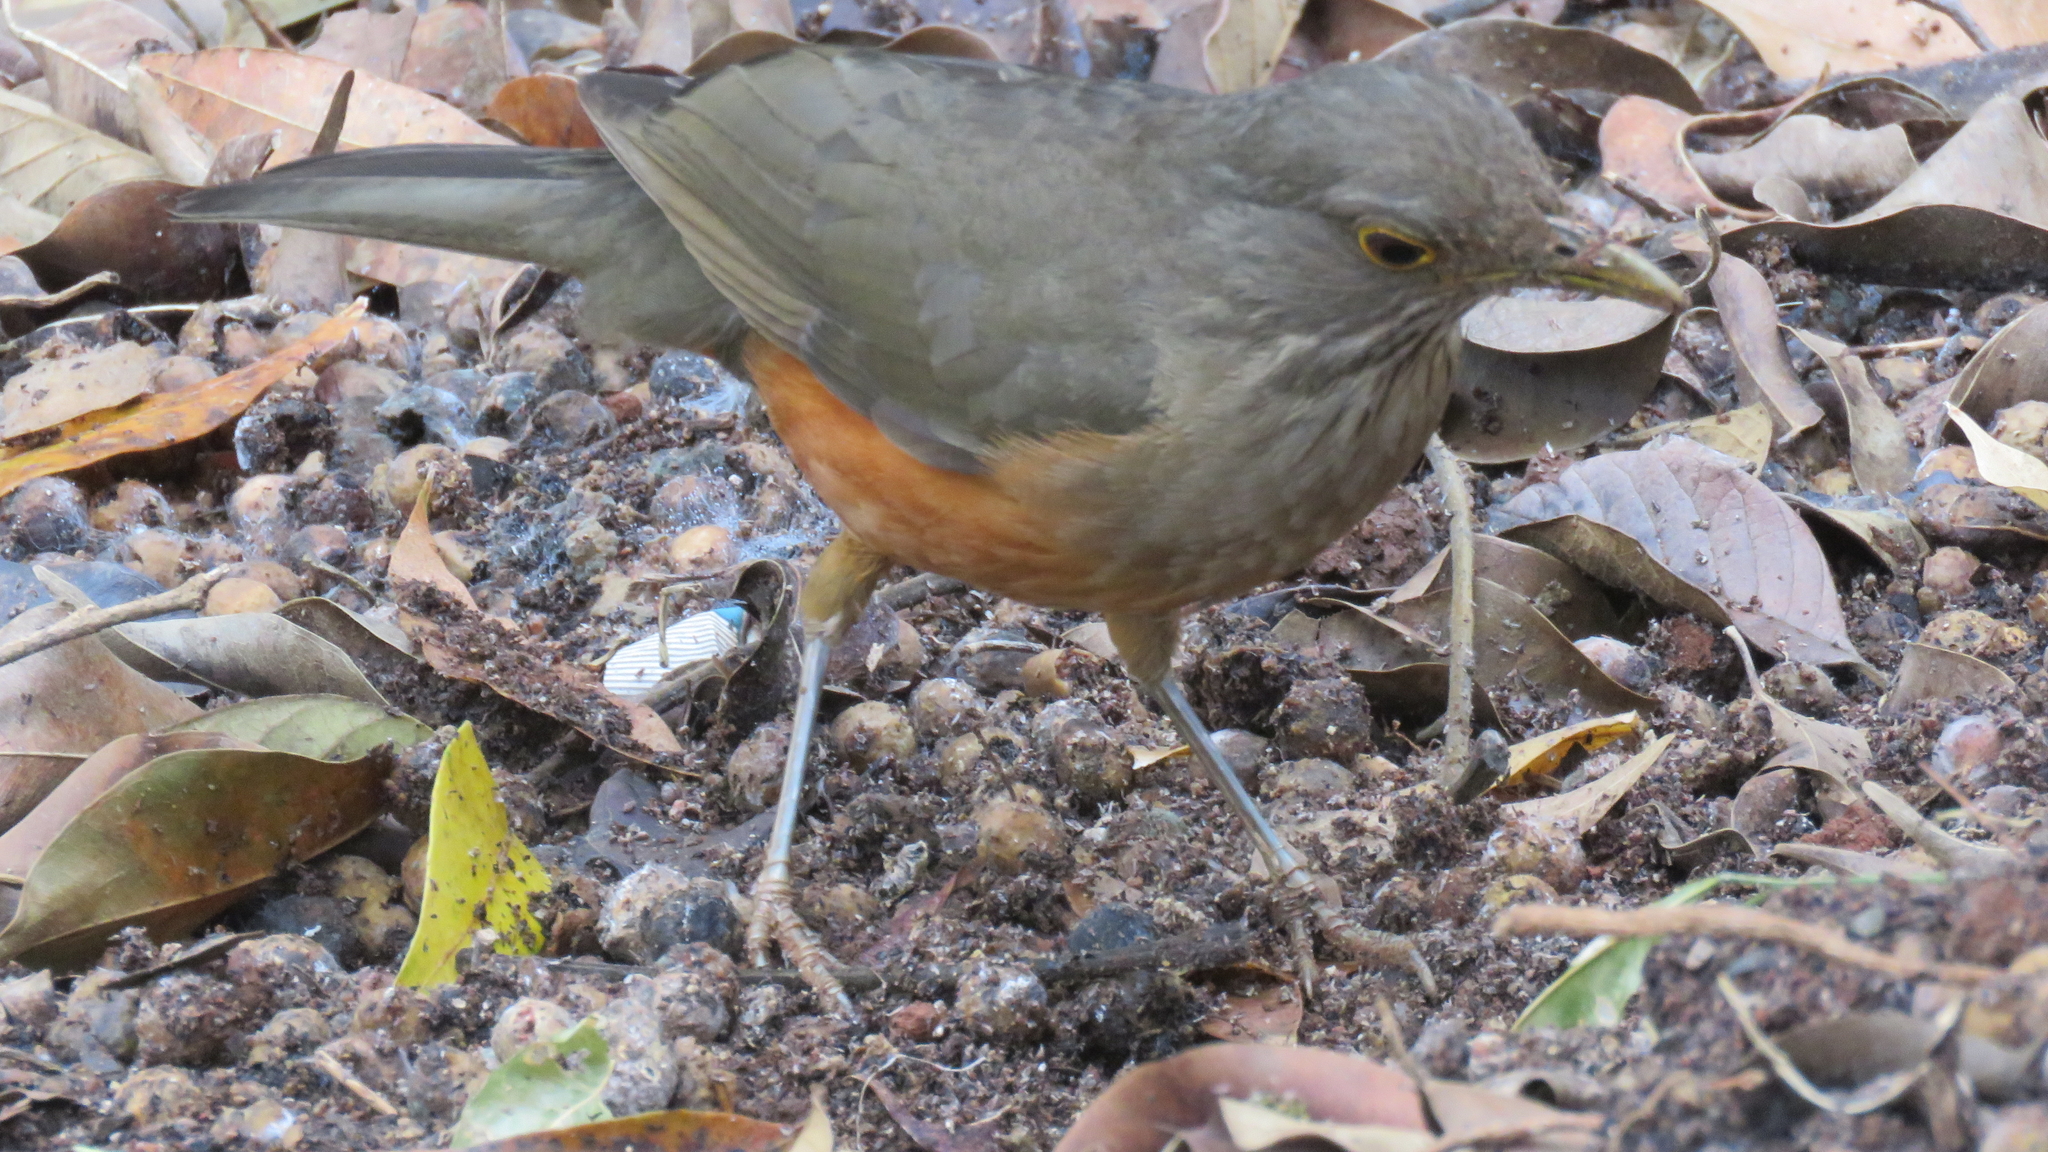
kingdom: Animalia
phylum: Chordata
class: Aves
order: Passeriformes
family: Turdidae
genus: Turdus
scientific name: Turdus rufiventris
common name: Rufous-bellied thrush
